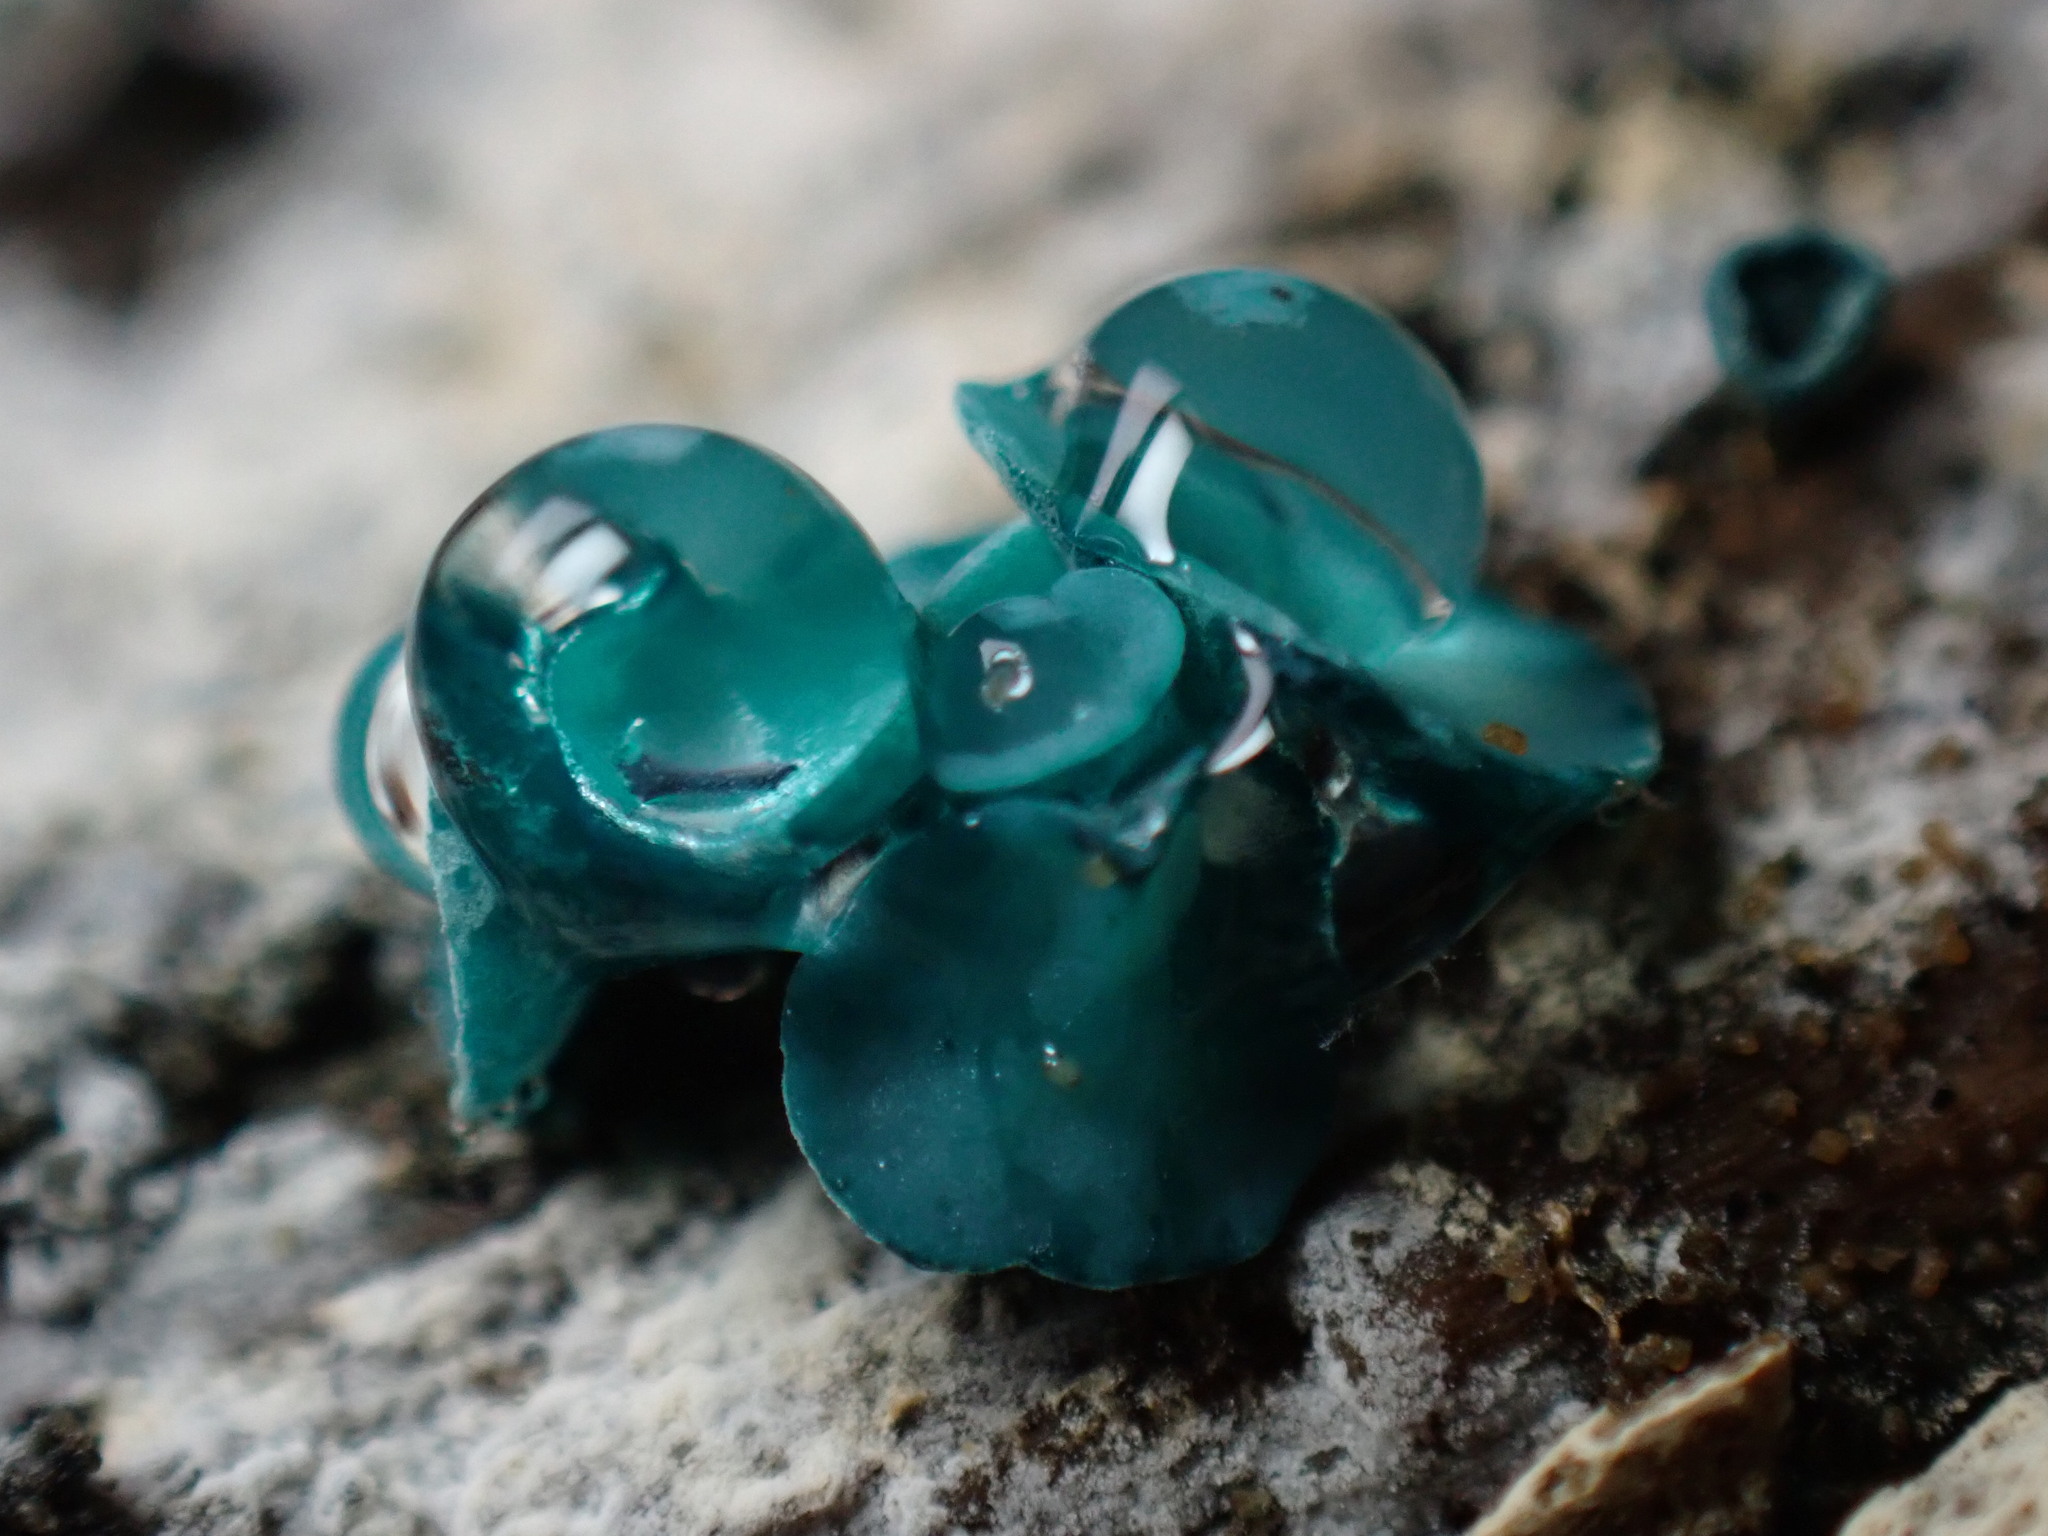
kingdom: Fungi
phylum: Ascomycota
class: Leotiomycetes
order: Helotiales
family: Chlorociboriaceae
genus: Chlorociboria
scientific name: Chlorociboria aeruginascens
